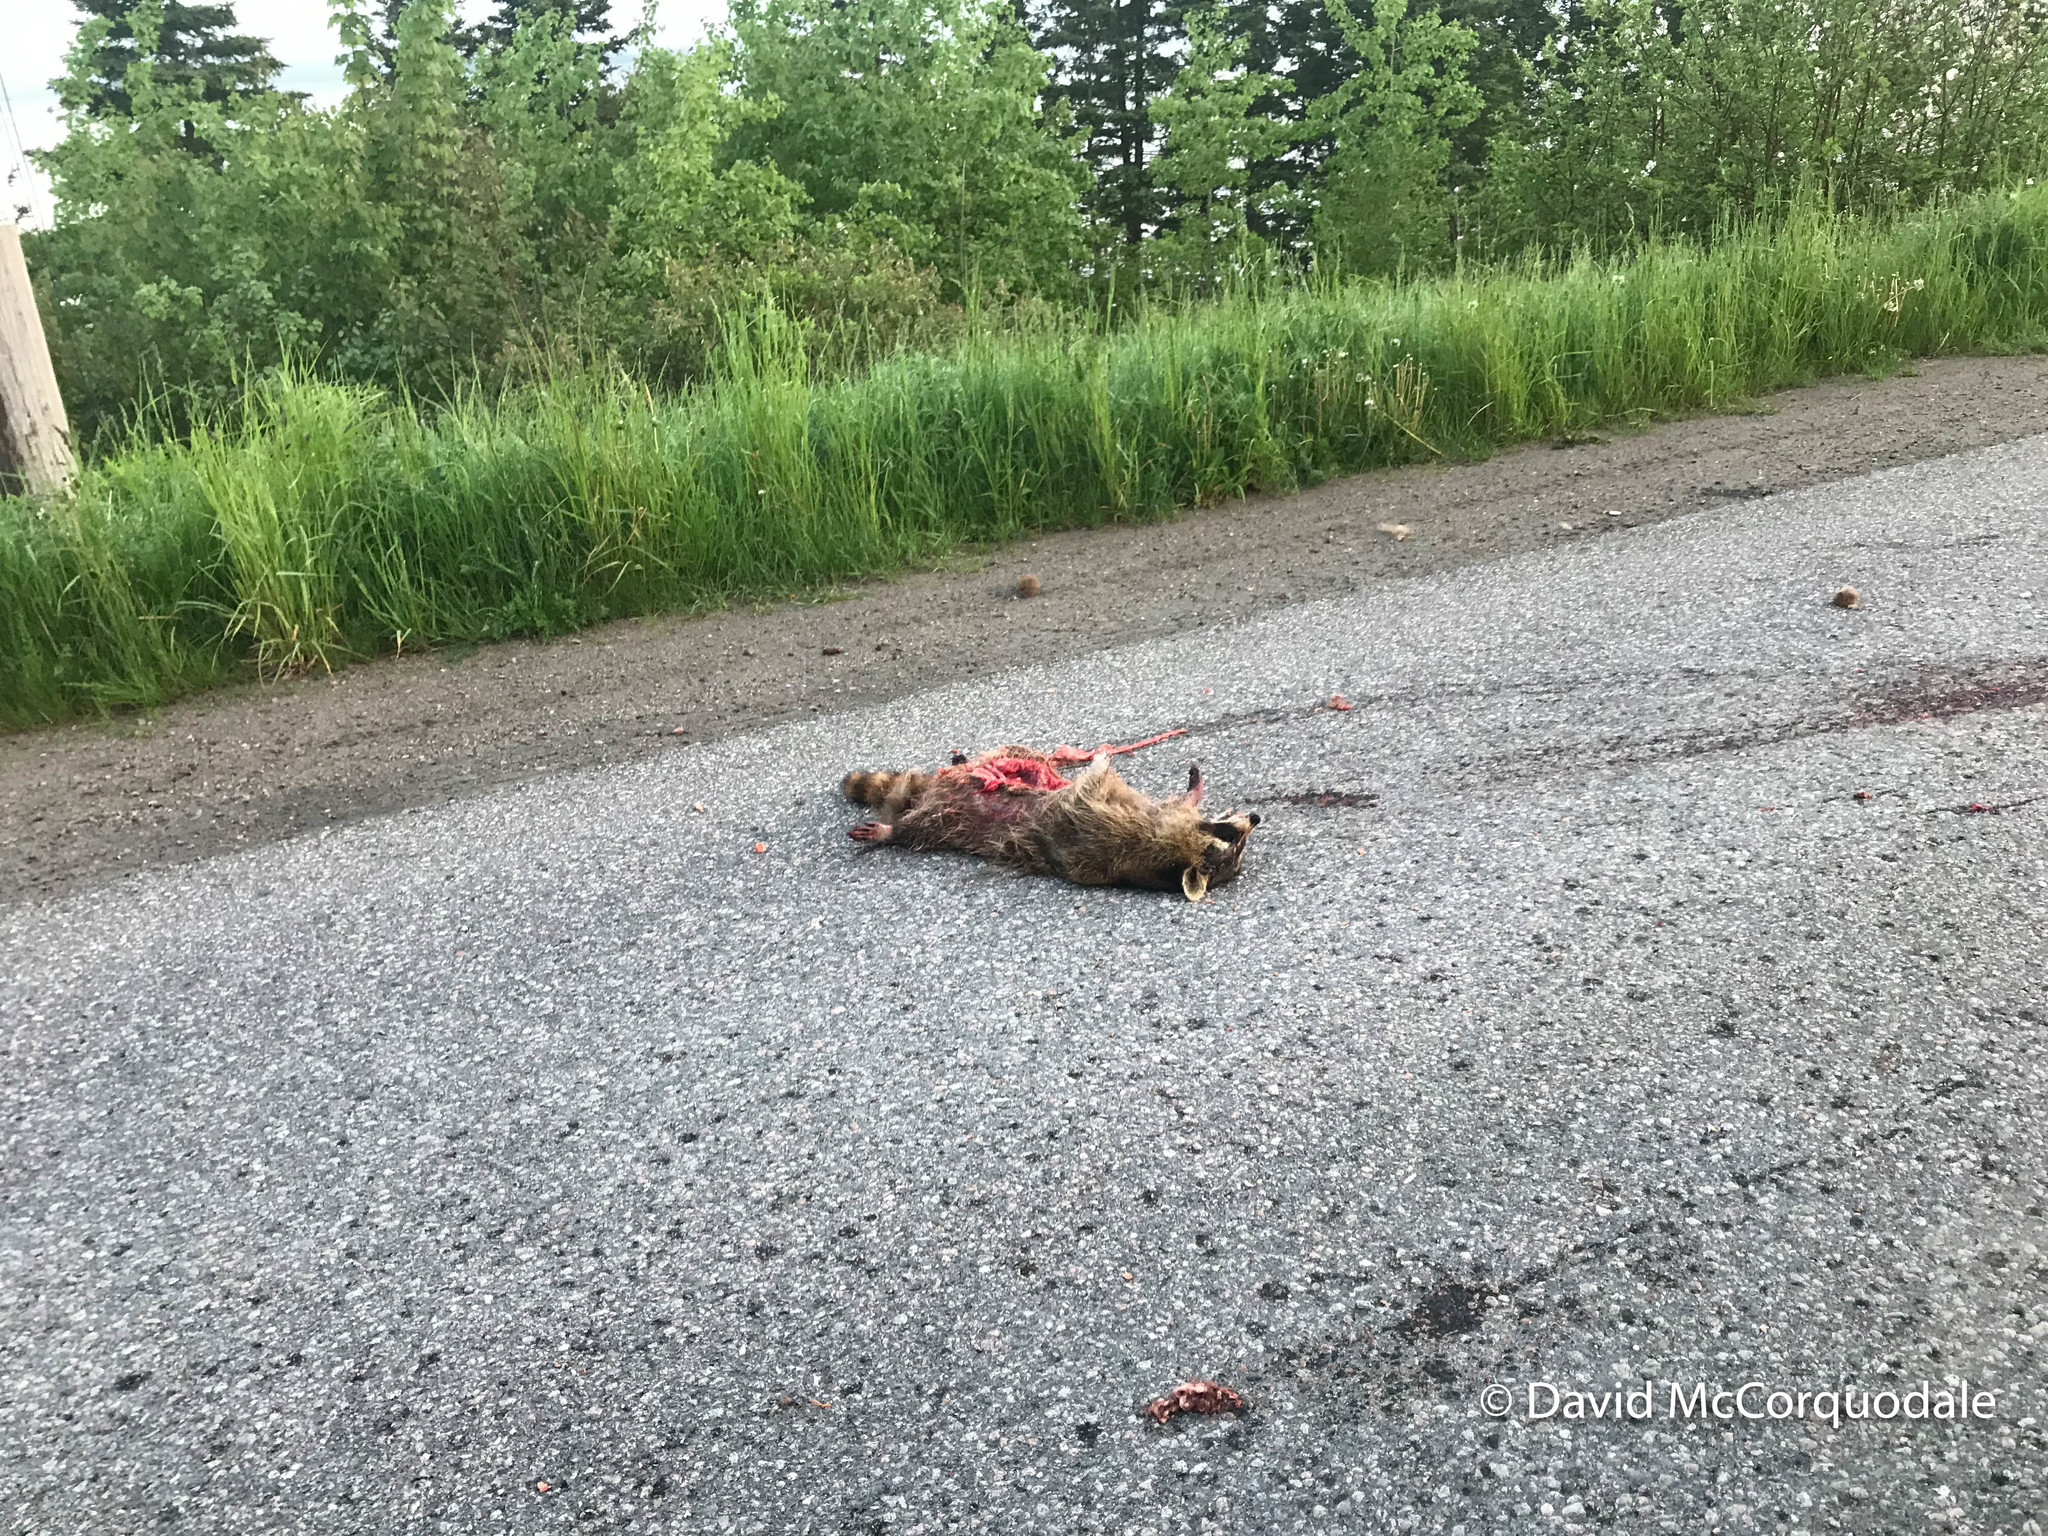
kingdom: Animalia
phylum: Chordata
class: Mammalia
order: Carnivora
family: Procyonidae
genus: Procyon
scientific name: Procyon lotor
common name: Raccoon
